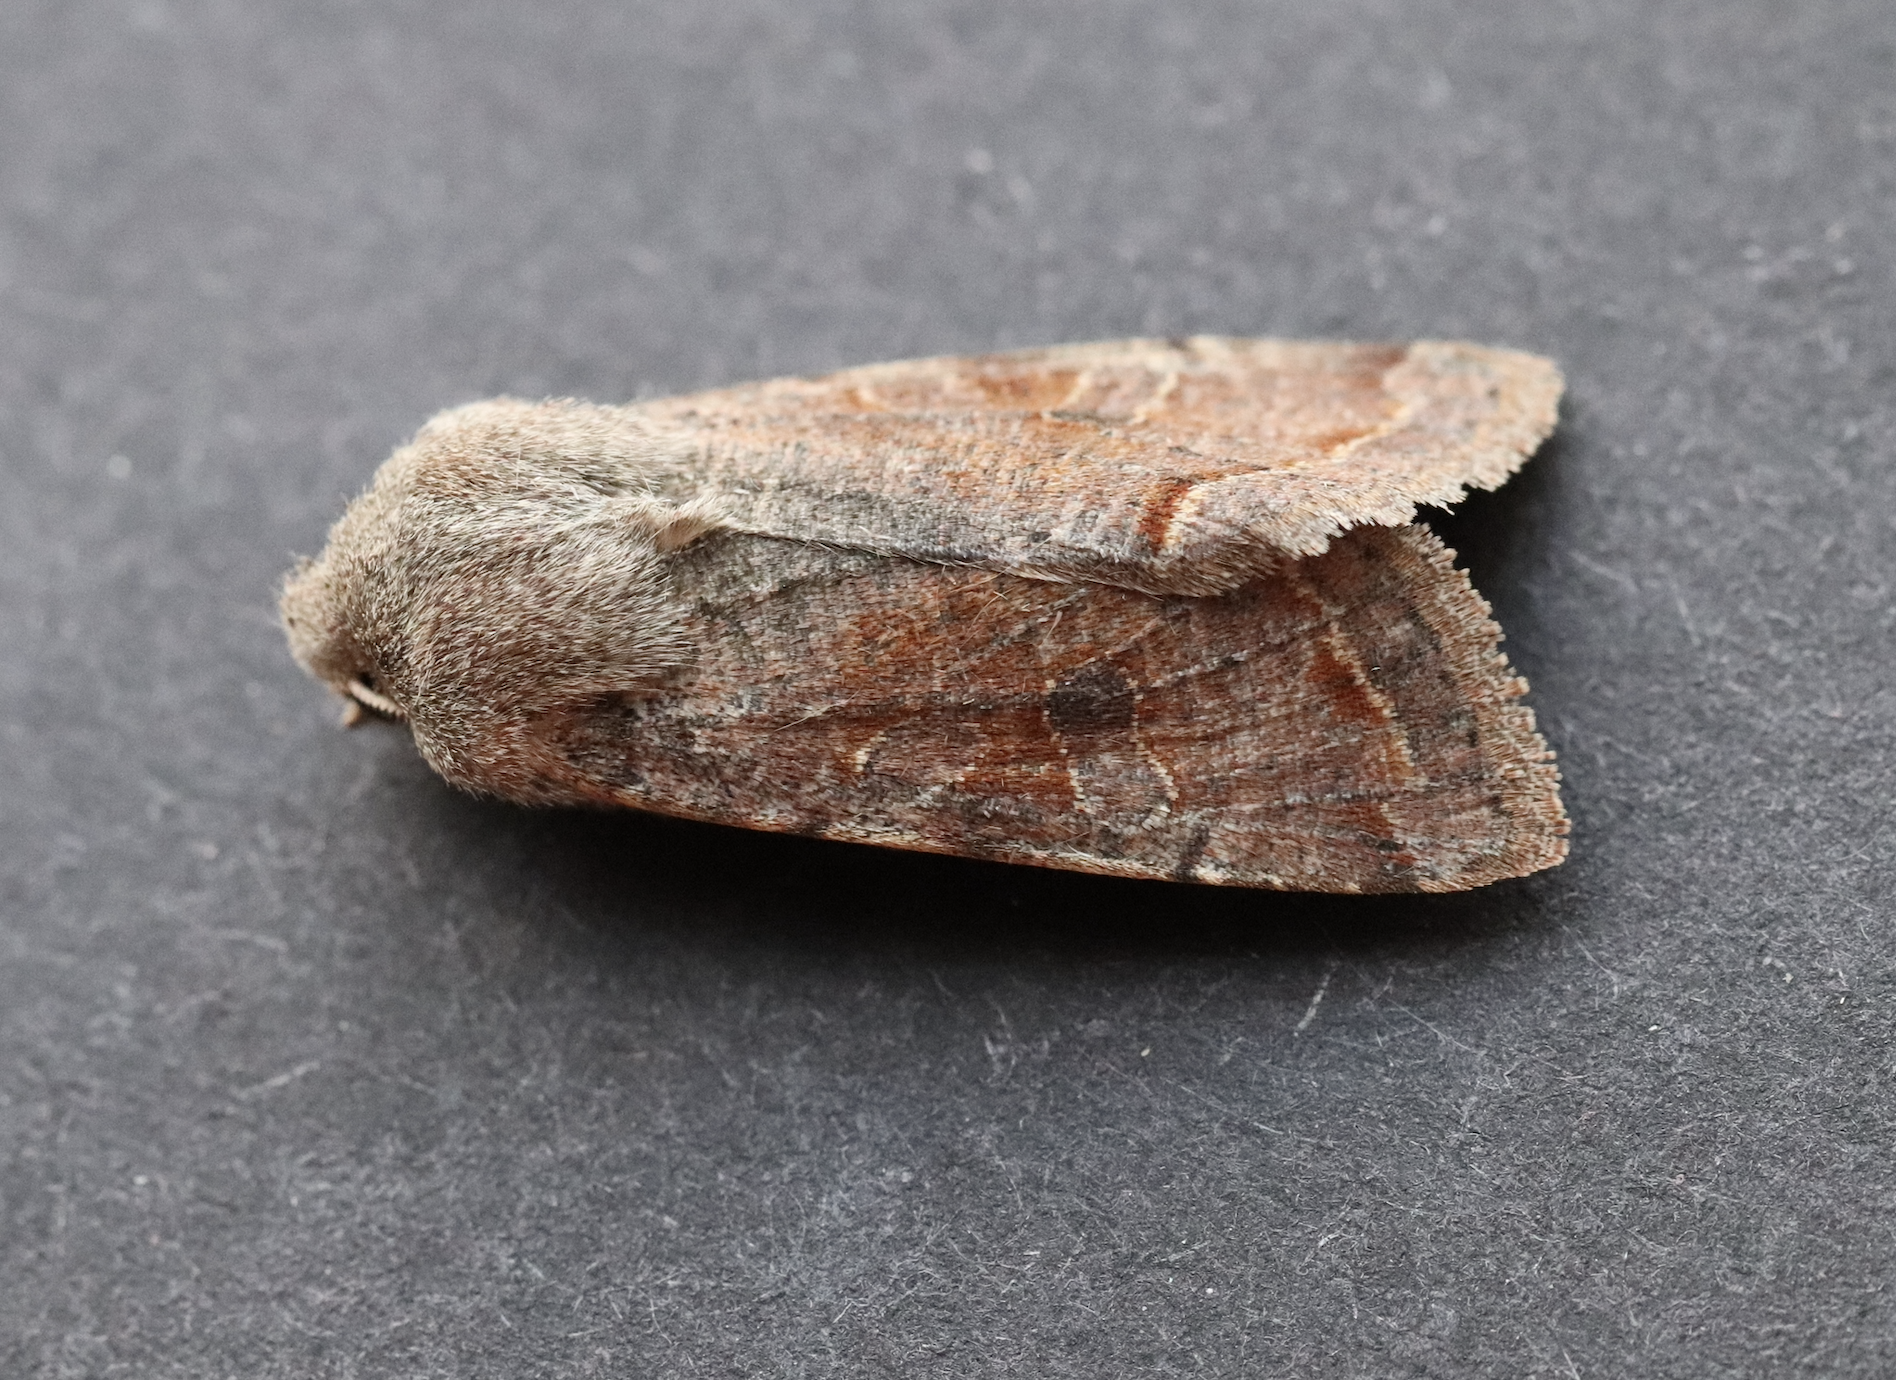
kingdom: Animalia
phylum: Arthropoda
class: Insecta
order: Lepidoptera
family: Noctuidae
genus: Orthosia
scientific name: Orthosia incerta
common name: Clouded drab
